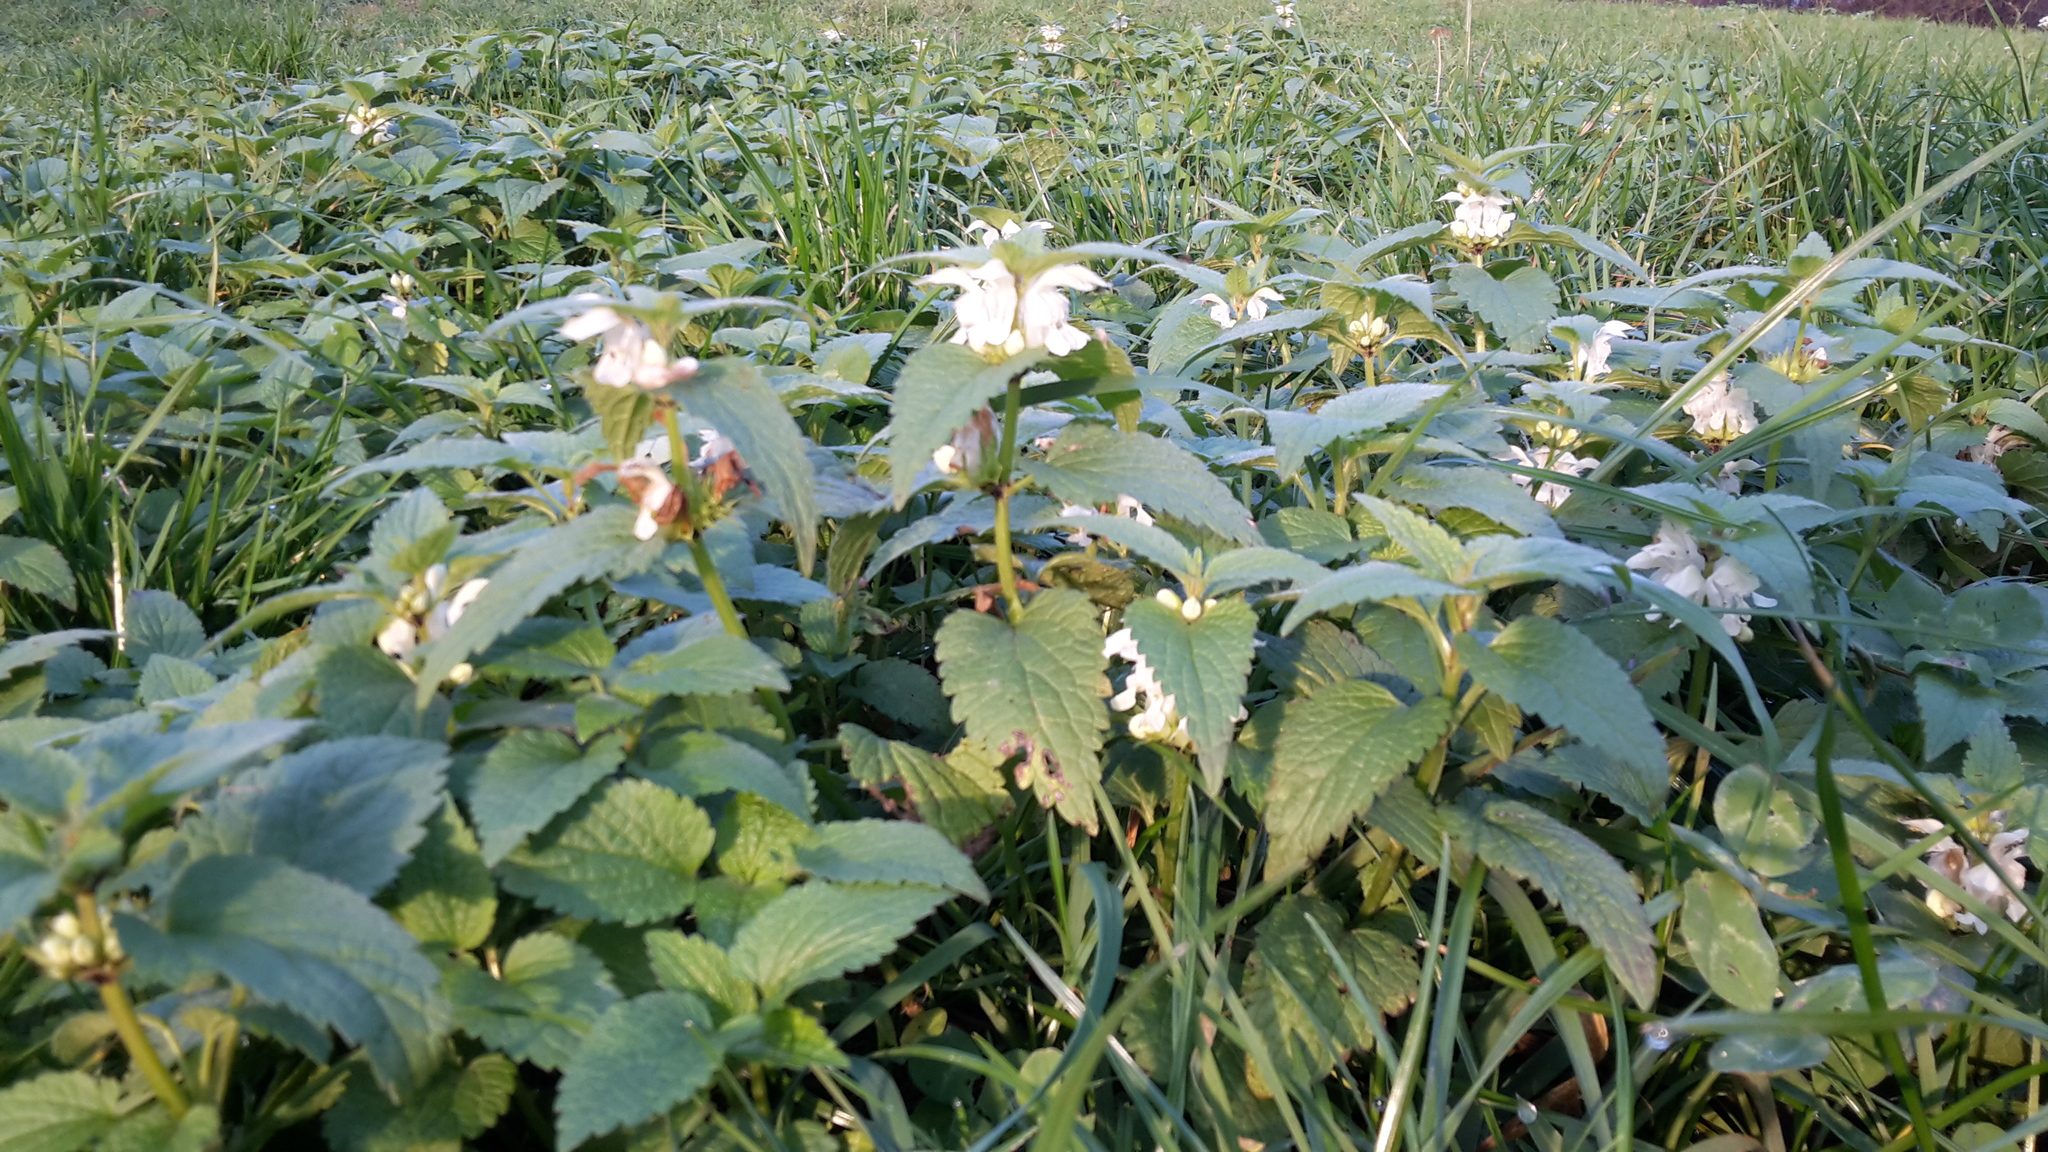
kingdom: Plantae
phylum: Tracheophyta
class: Magnoliopsida
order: Lamiales
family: Lamiaceae
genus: Lamium
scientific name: Lamium album
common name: White dead-nettle
